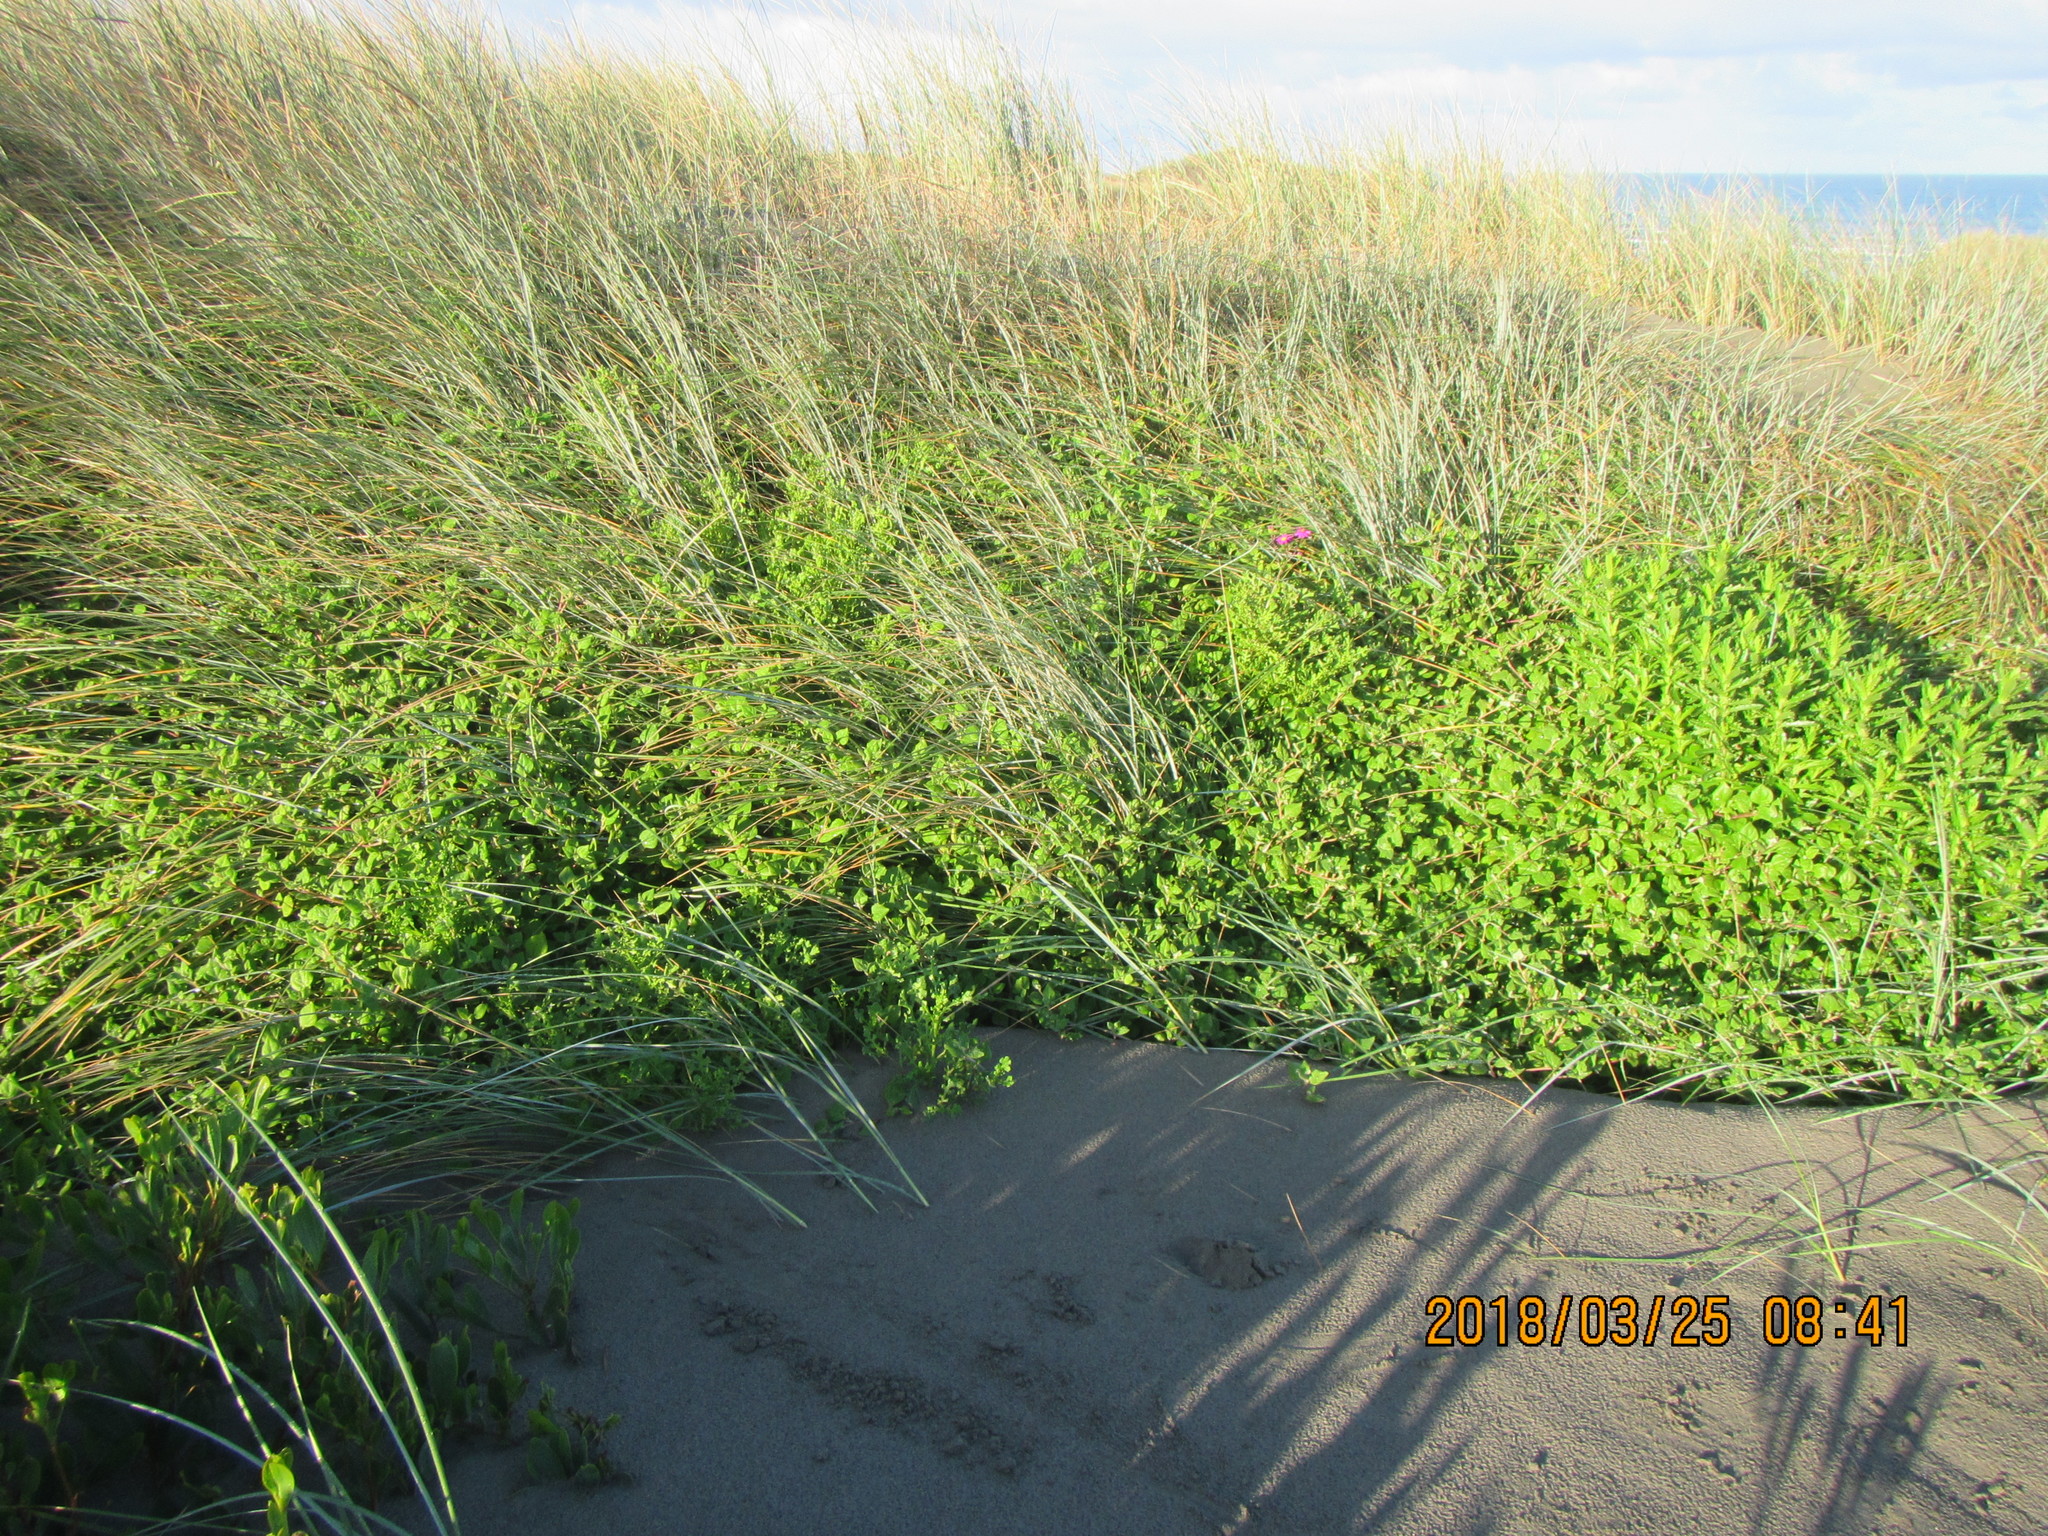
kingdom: Plantae
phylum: Tracheophyta
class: Magnoliopsida
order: Caryophyllales
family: Aizoaceae
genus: Tetragonia
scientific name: Tetragonia implexicoma
